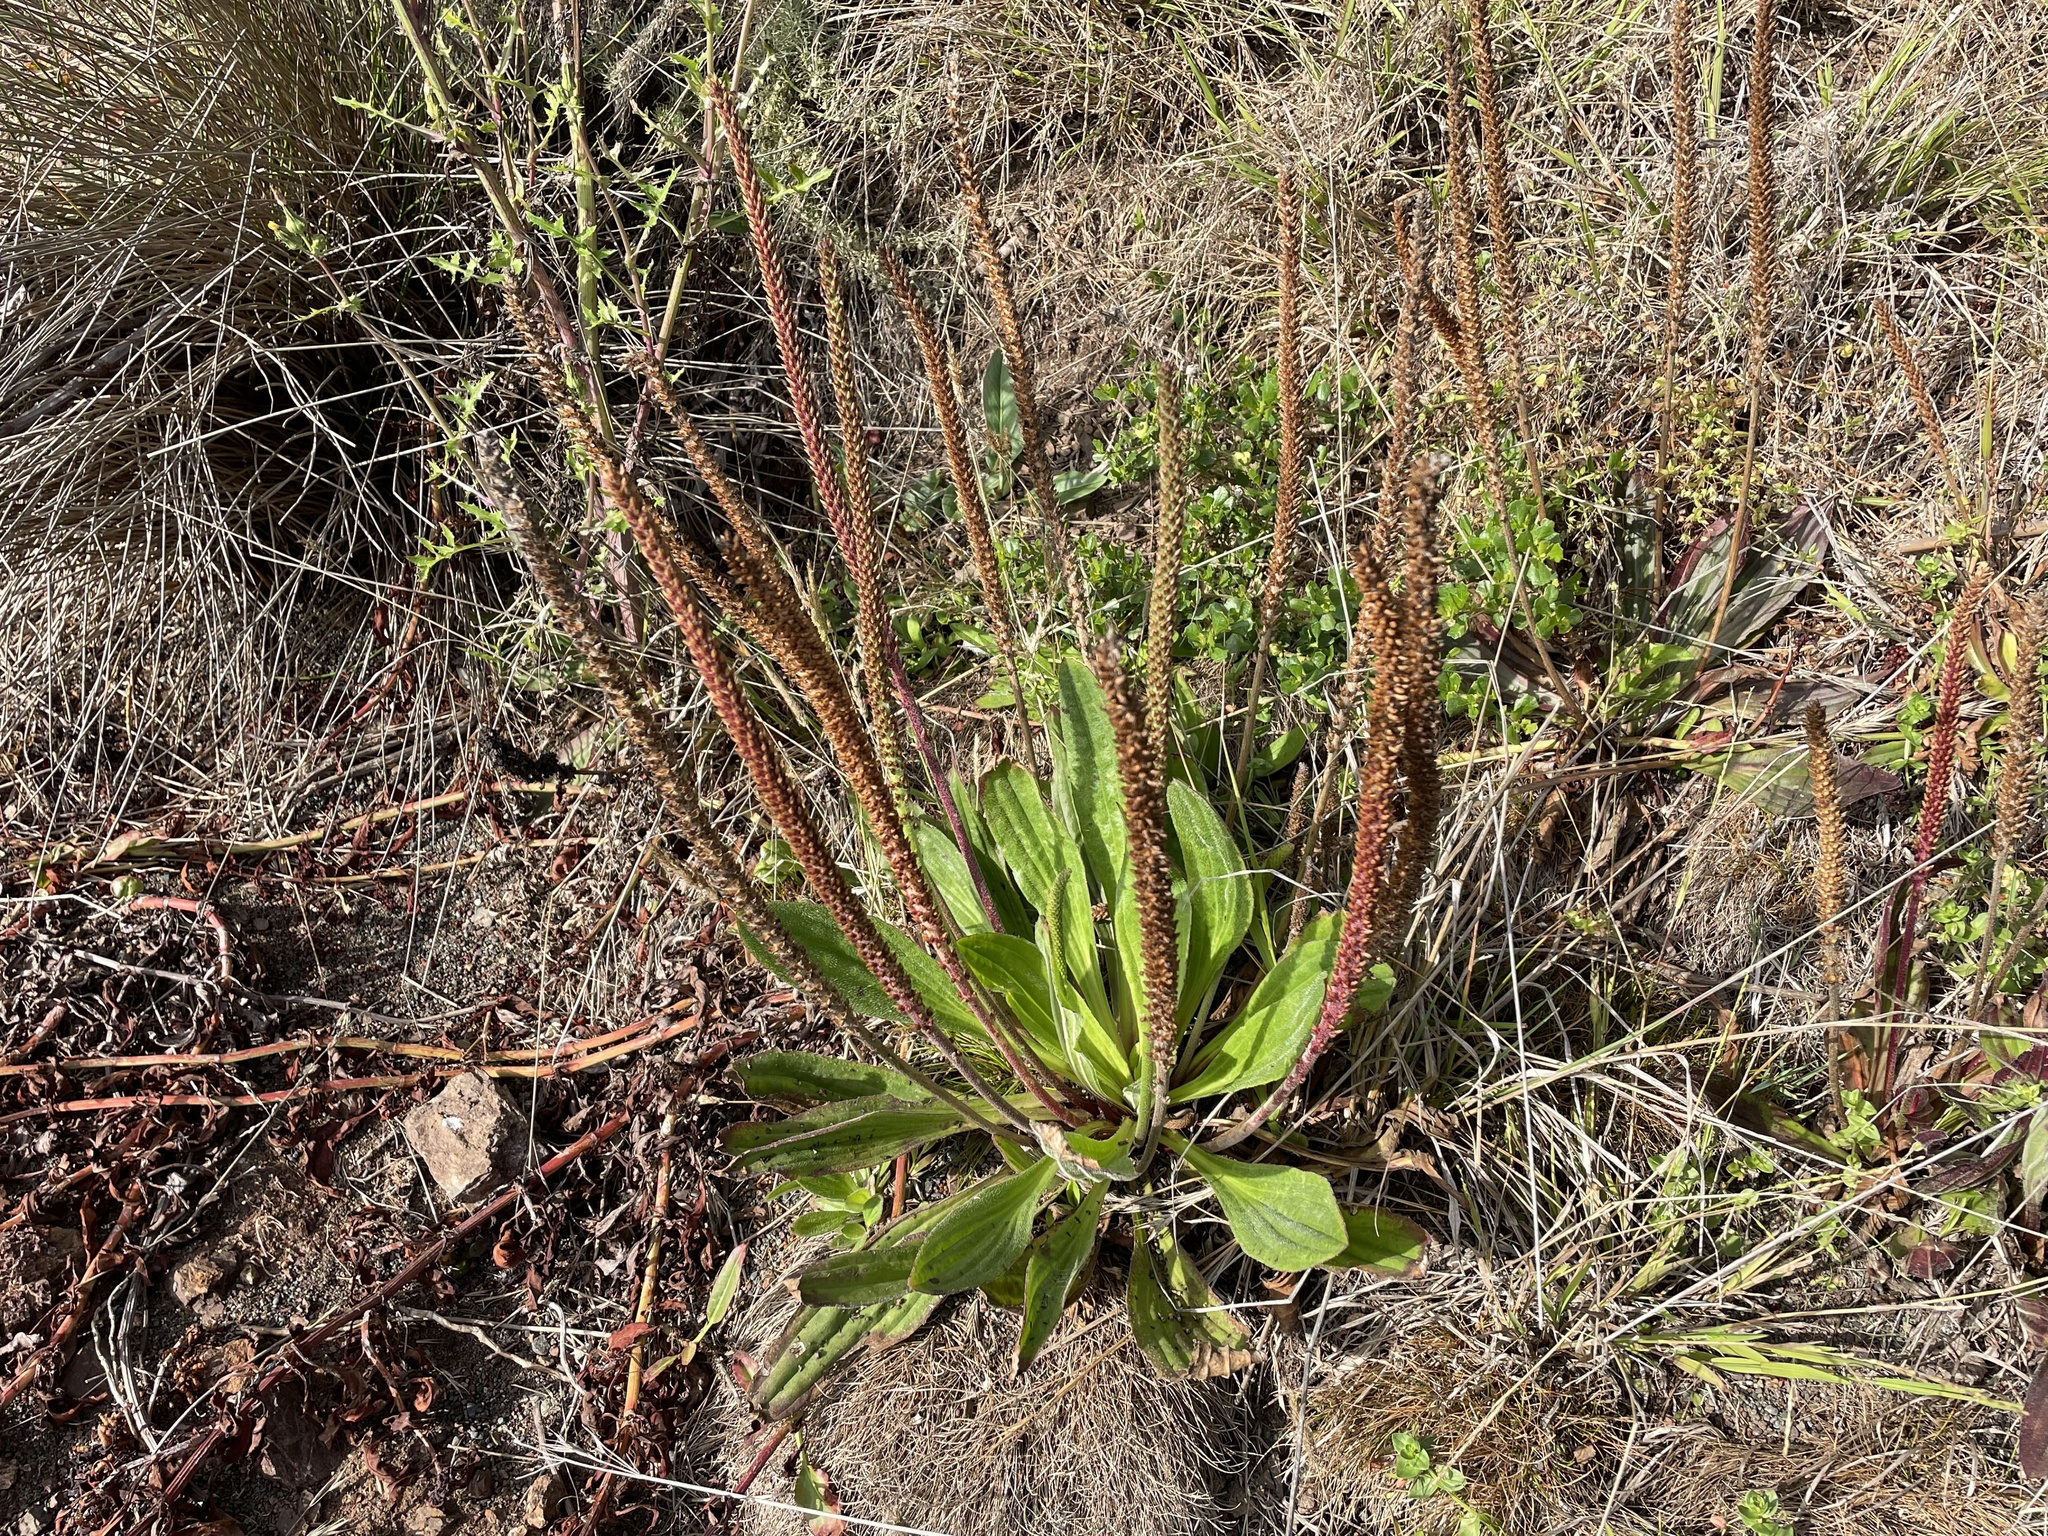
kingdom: Plantae
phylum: Tracheophyta
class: Magnoliopsida
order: Lamiales
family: Plantaginaceae
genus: Plantago
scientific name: Plantago subnuda
